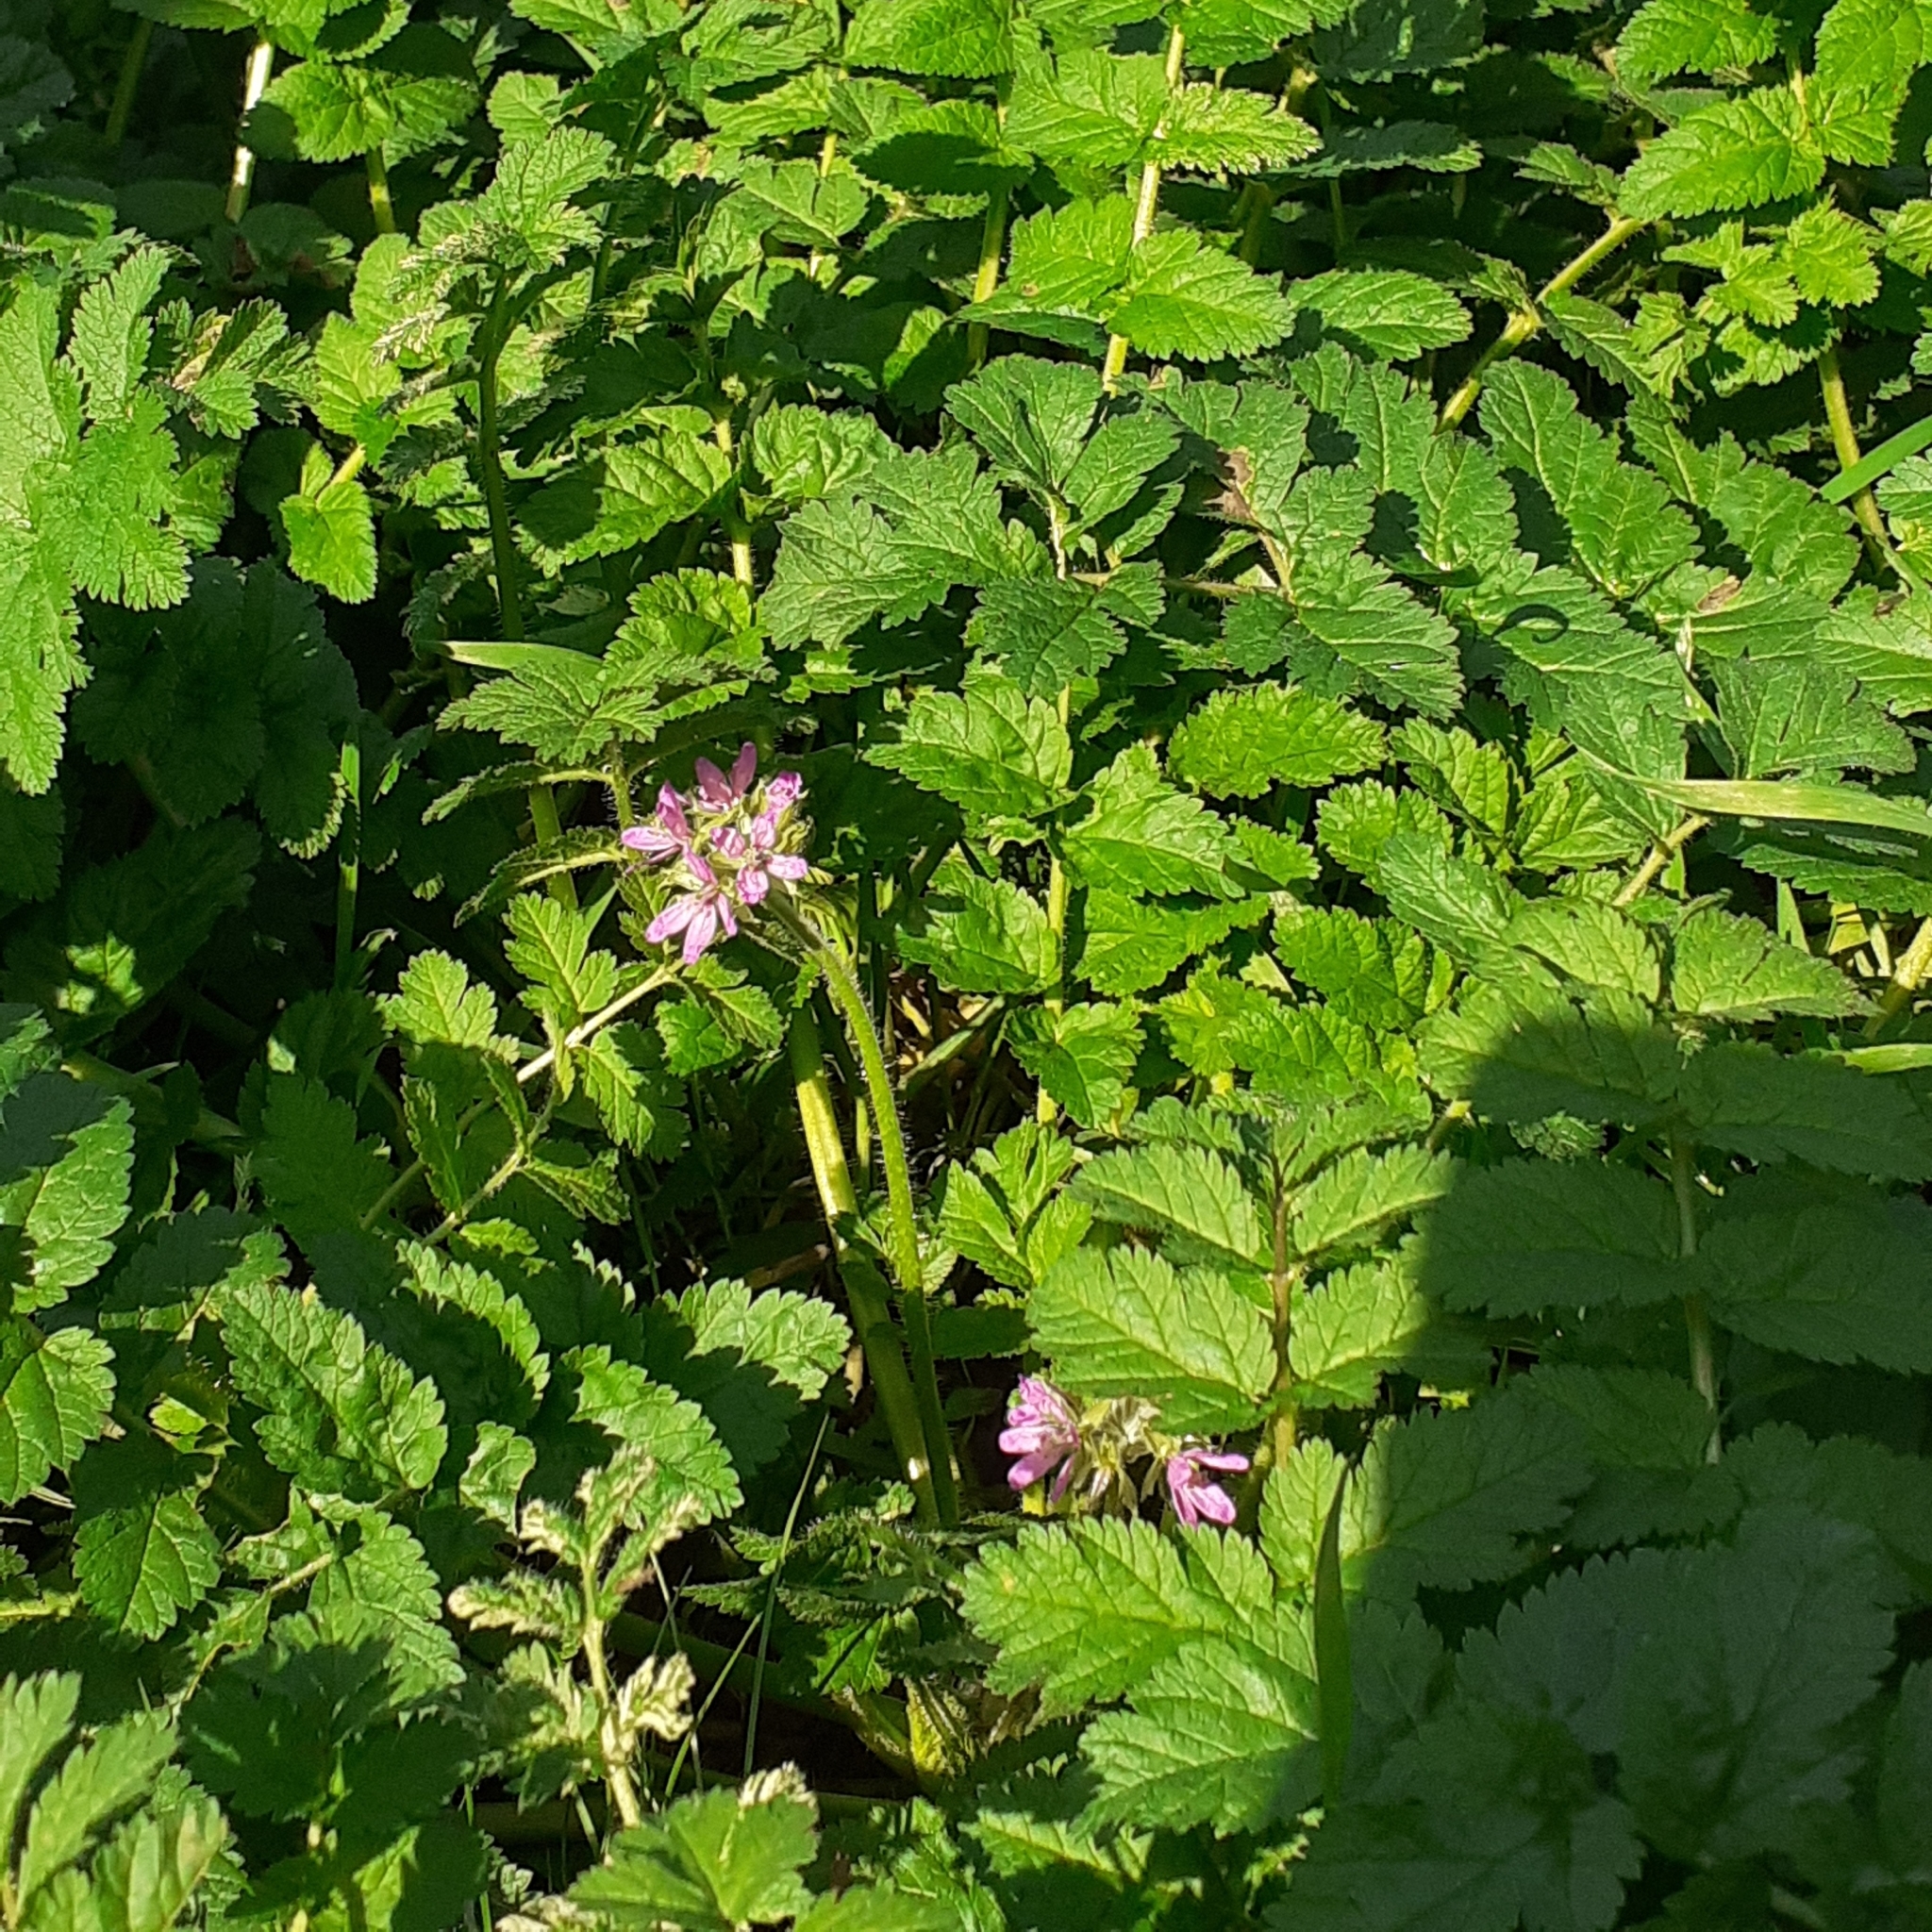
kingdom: Plantae
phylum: Tracheophyta
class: Magnoliopsida
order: Geraniales
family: Geraniaceae
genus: Erodium
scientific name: Erodium moschatum
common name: Musk stork's-bill
